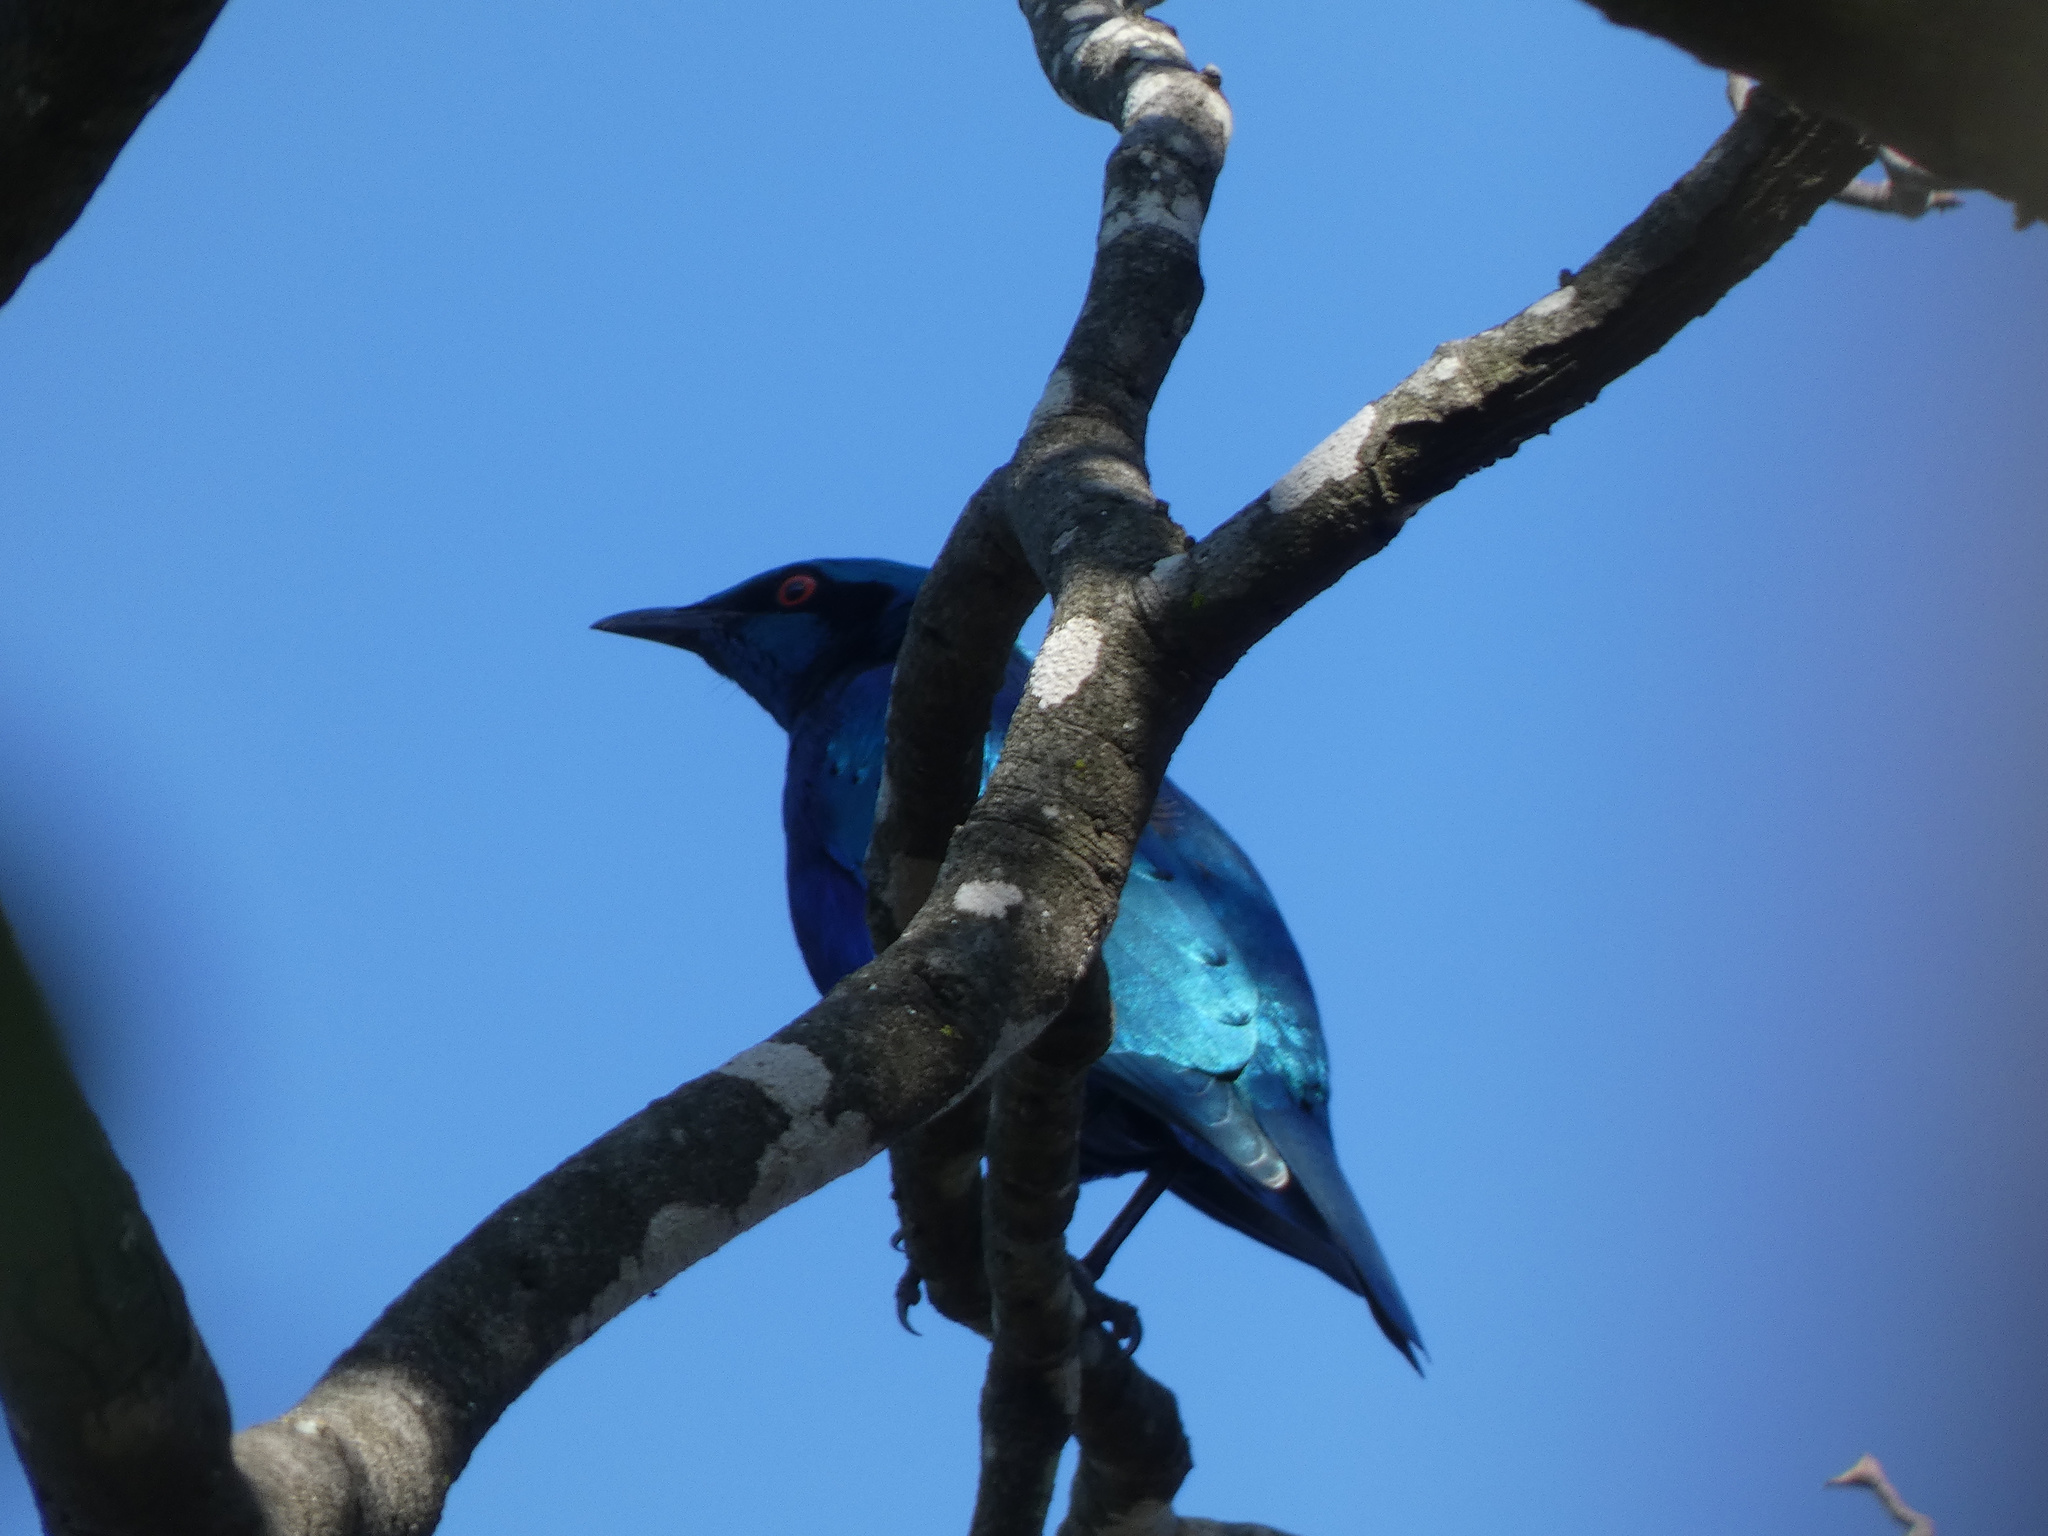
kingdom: Animalia
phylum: Chordata
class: Aves
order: Passeriformes
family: Sturnidae
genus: Lamprotornis
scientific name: Lamprotornis chloropterus
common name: Lesser blue-eared starling
